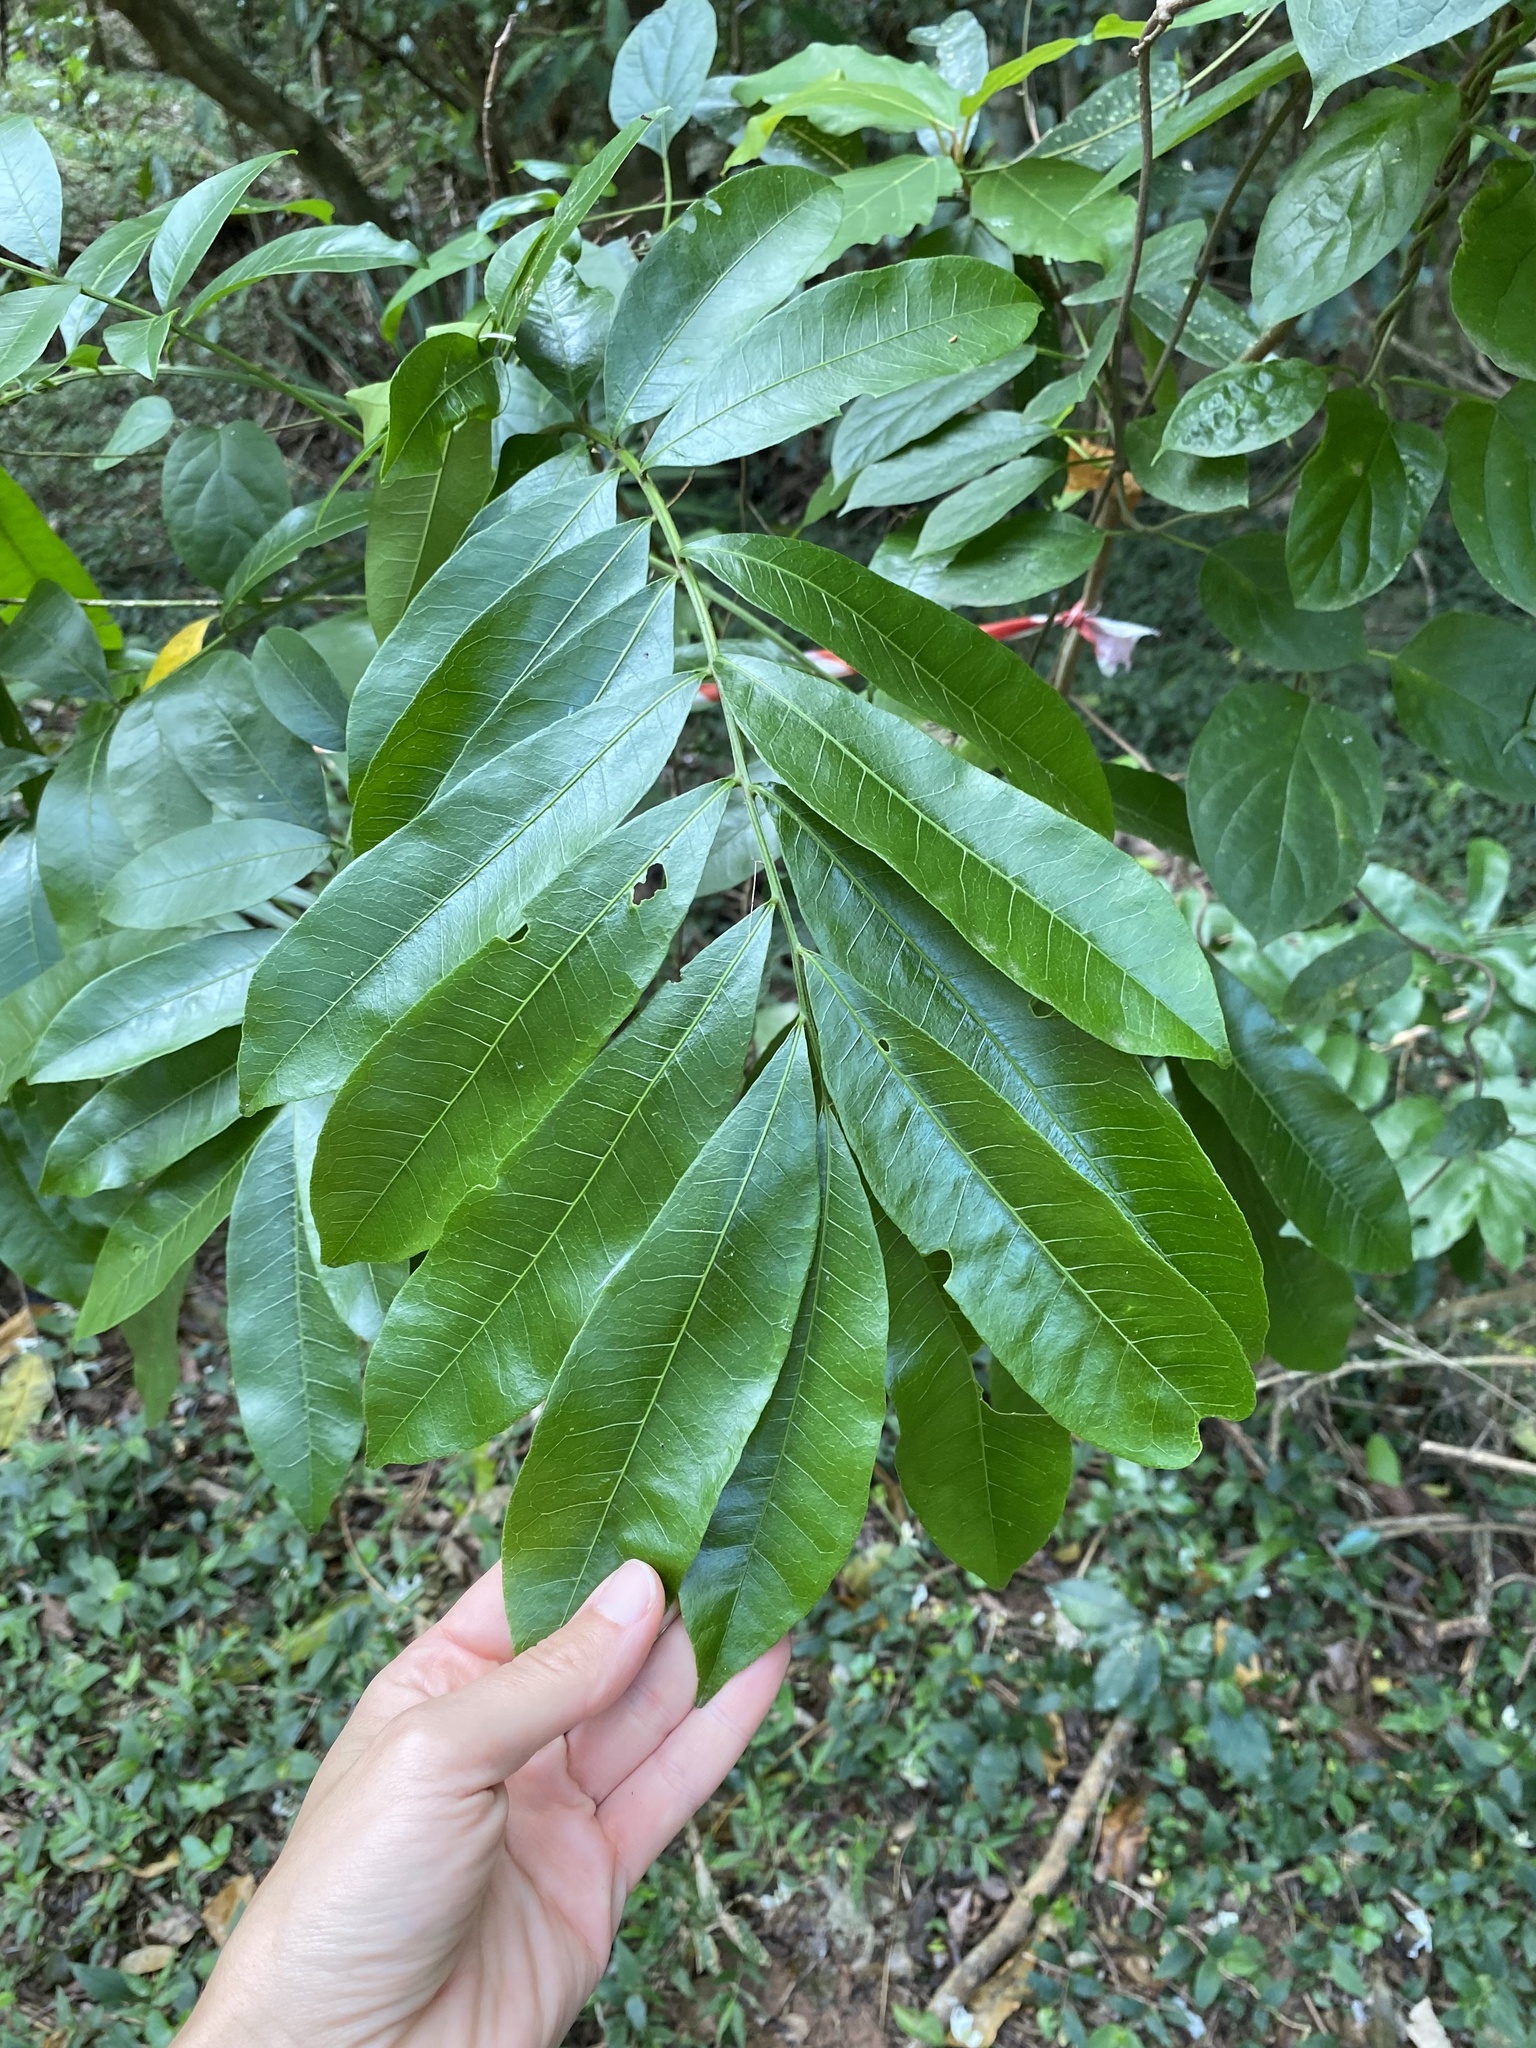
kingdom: Plantae
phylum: Tracheophyta
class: Magnoliopsida
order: Sapindales
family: Sapindaceae
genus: Deinbollia
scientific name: Deinbollia oblongifolia
